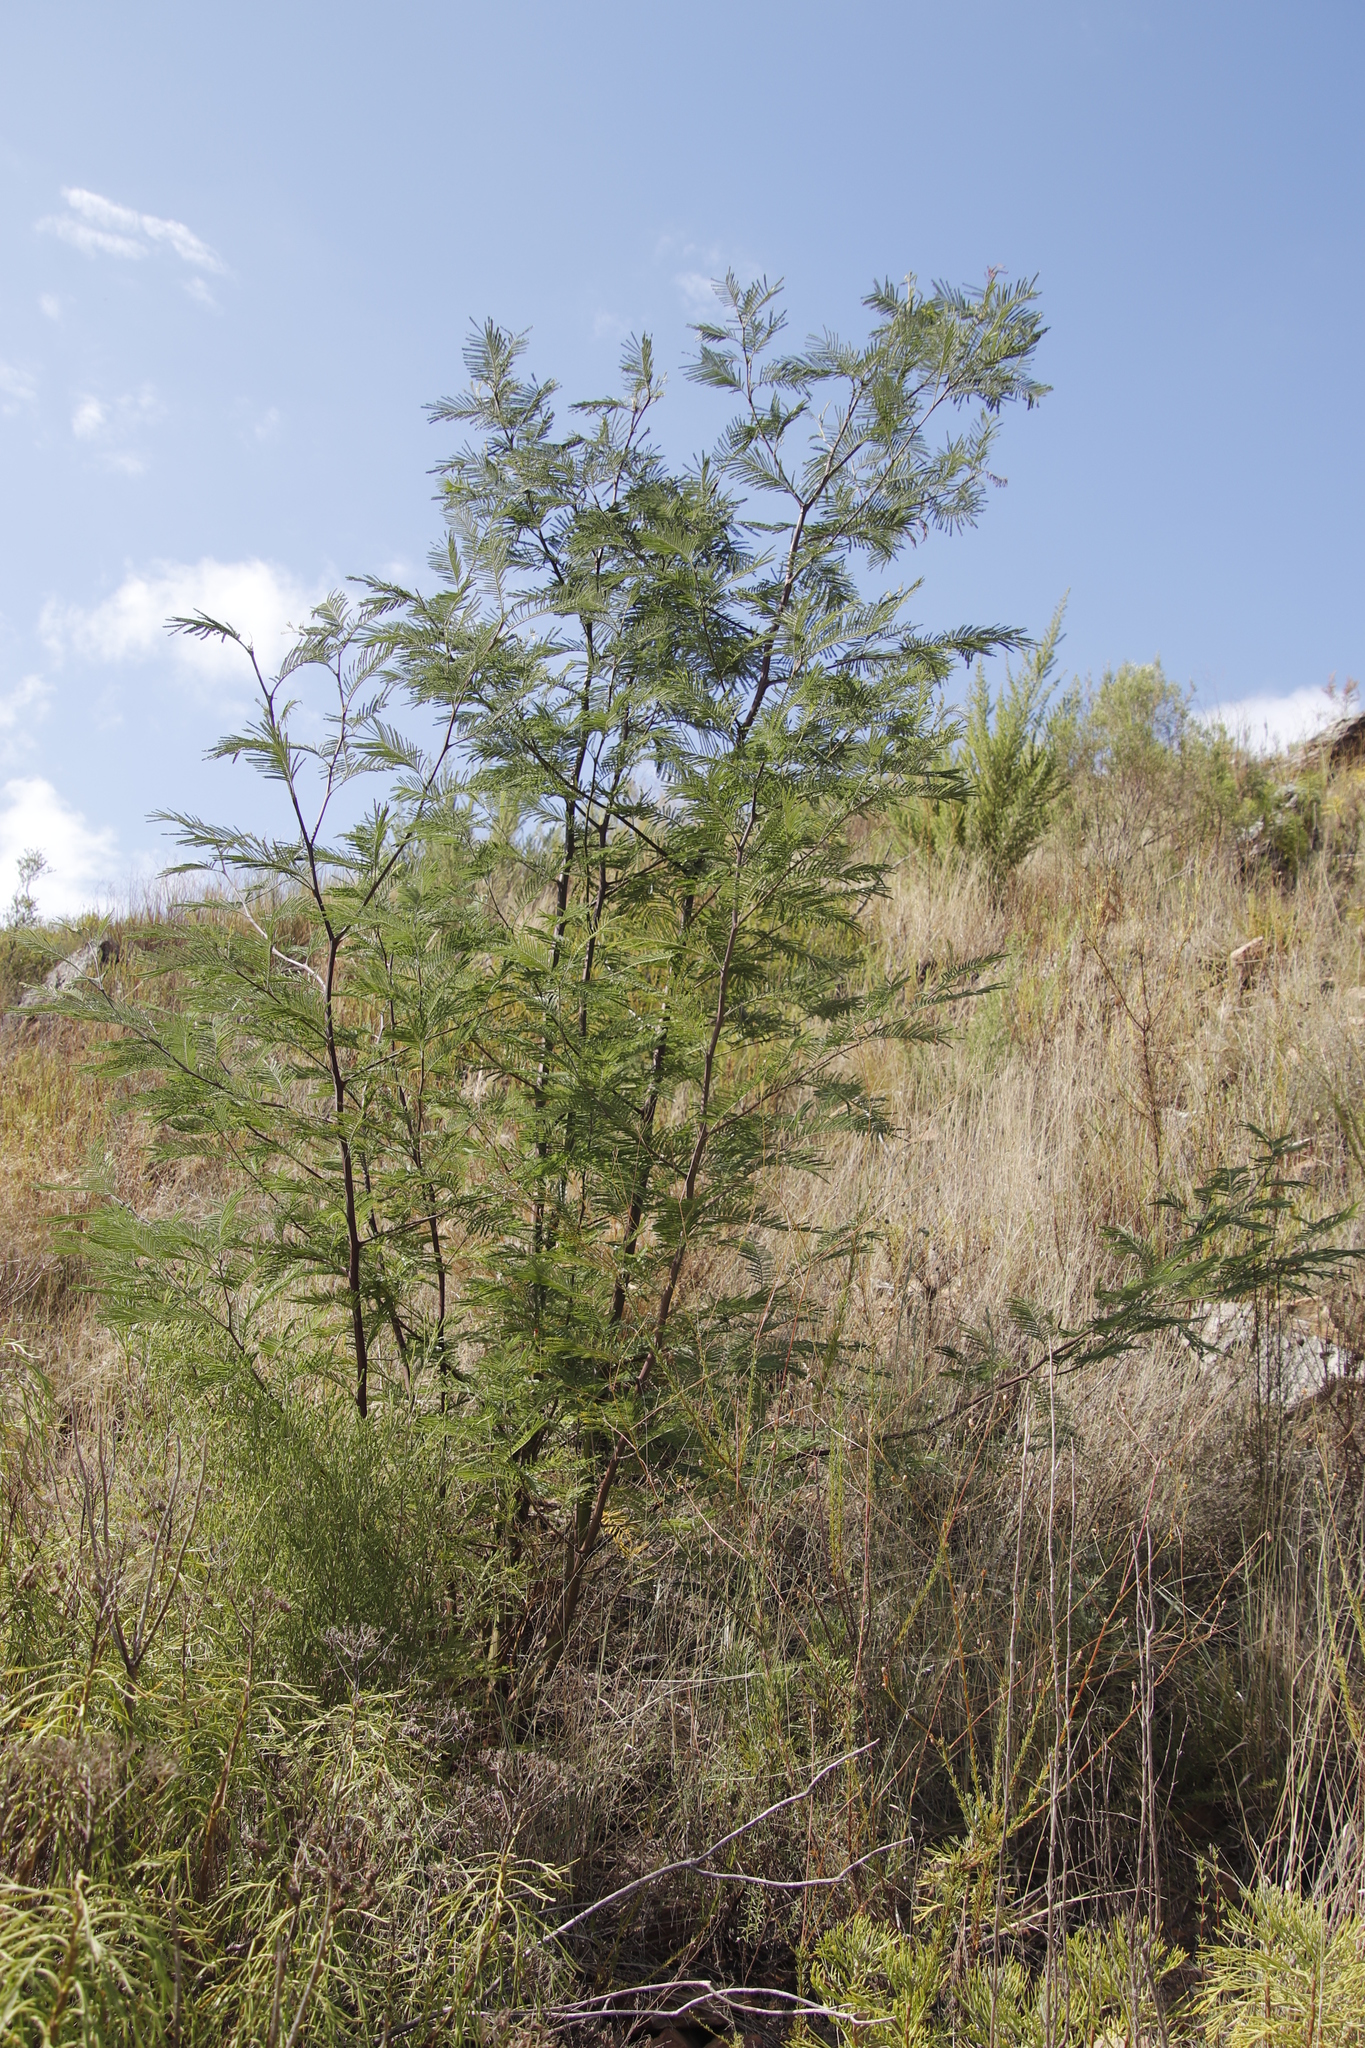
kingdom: Plantae
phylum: Tracheophyta
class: Magnoliopsida
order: Fabales
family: Fabaceae
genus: Acacia
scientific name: Acacia mearnsii
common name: Black wattle
